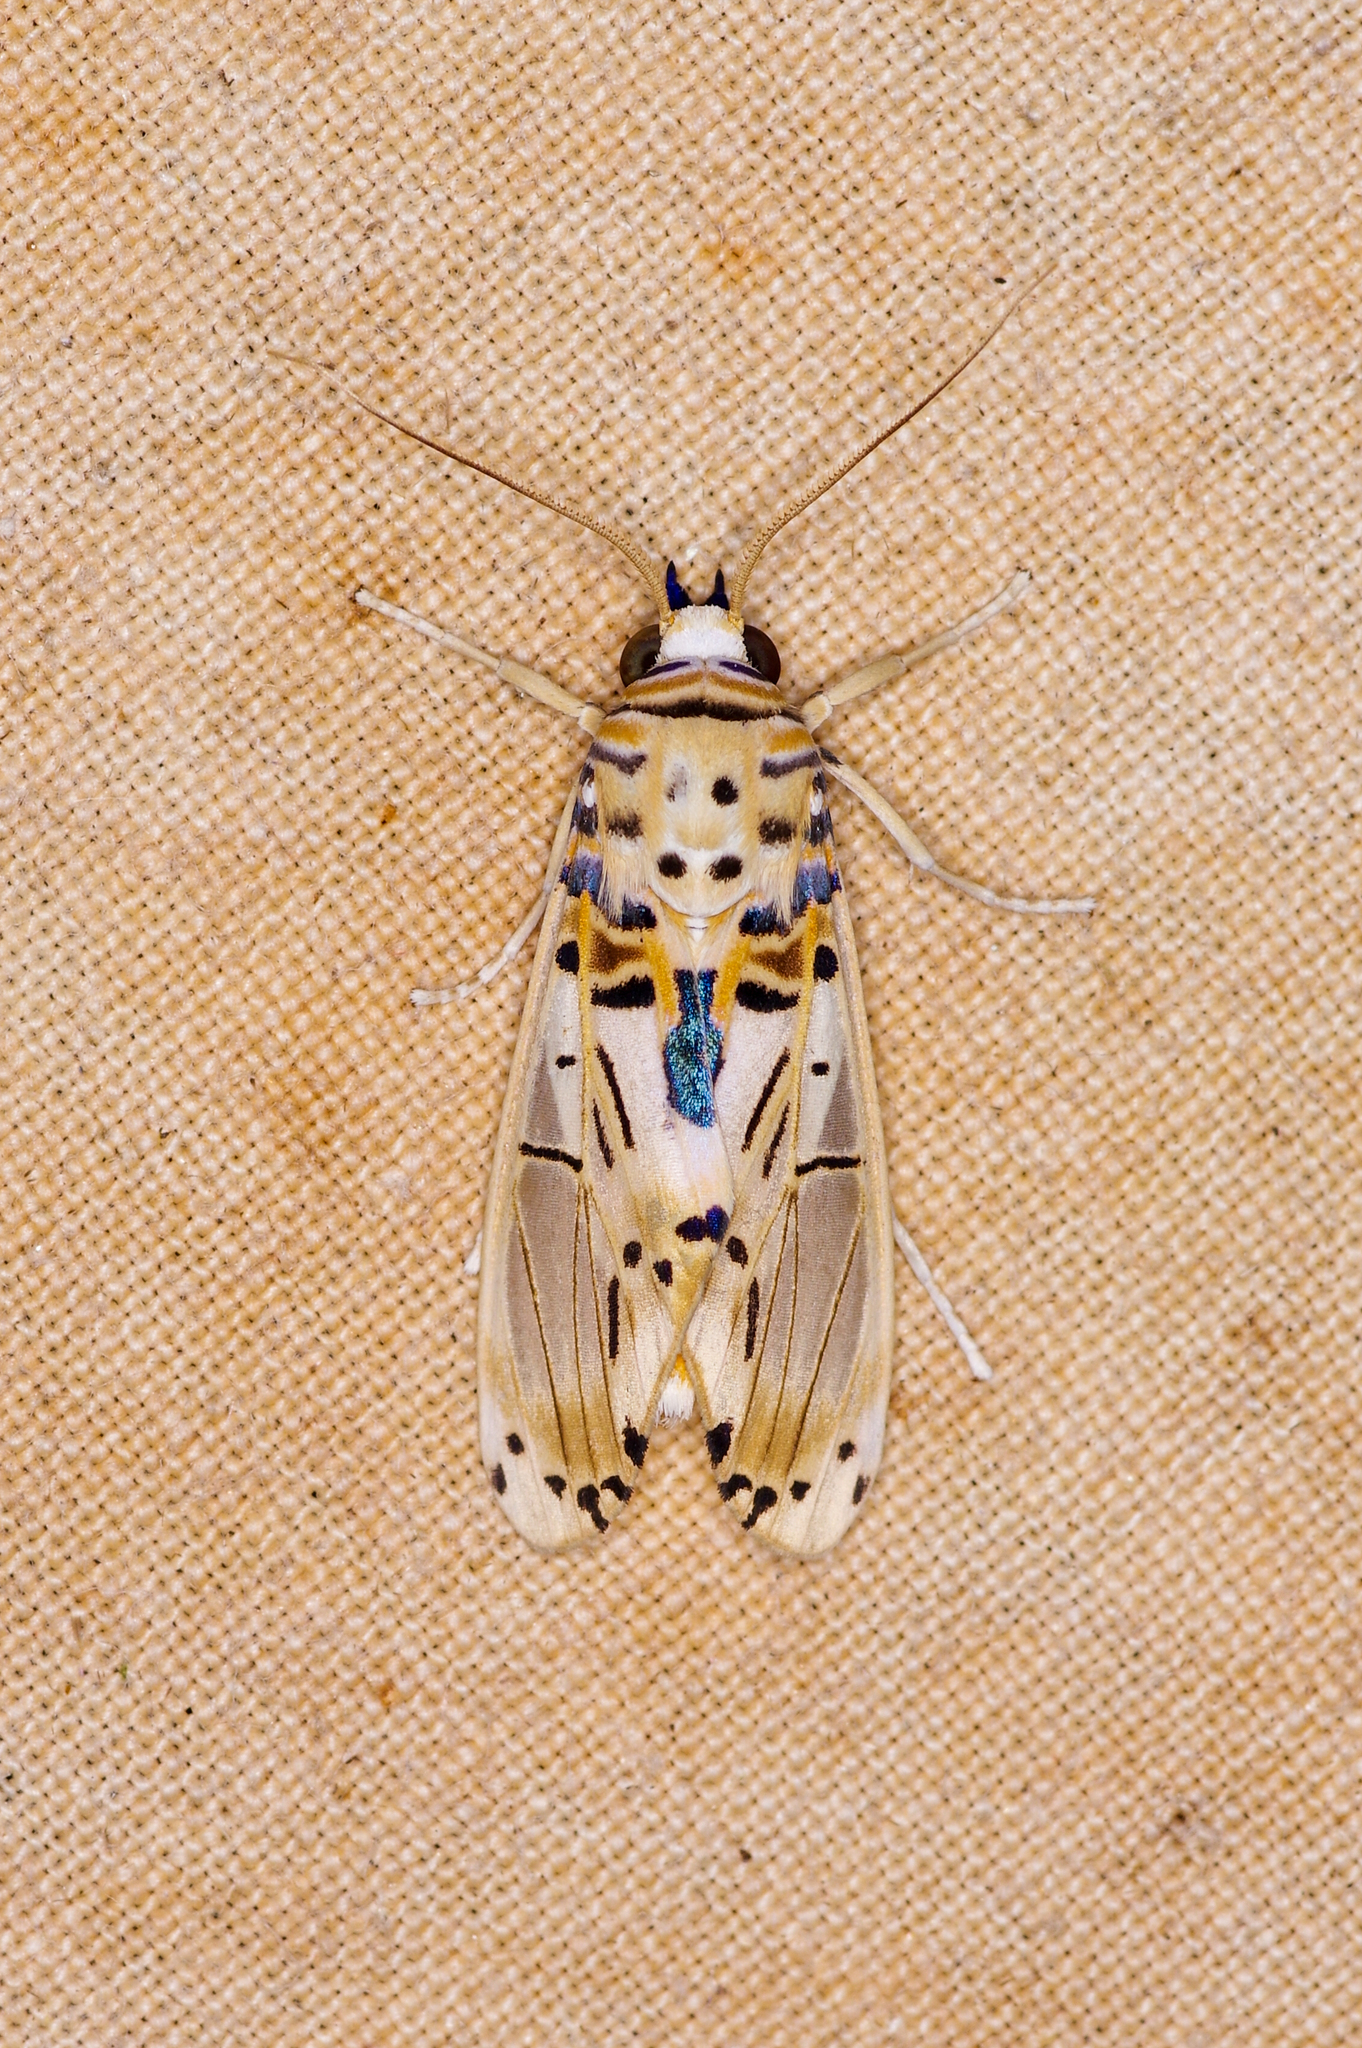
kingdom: Animalia
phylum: Arthropoda
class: Insecta
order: Lepidoptera
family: Erebidae
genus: Aphyle
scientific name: Aphyle cuneata
